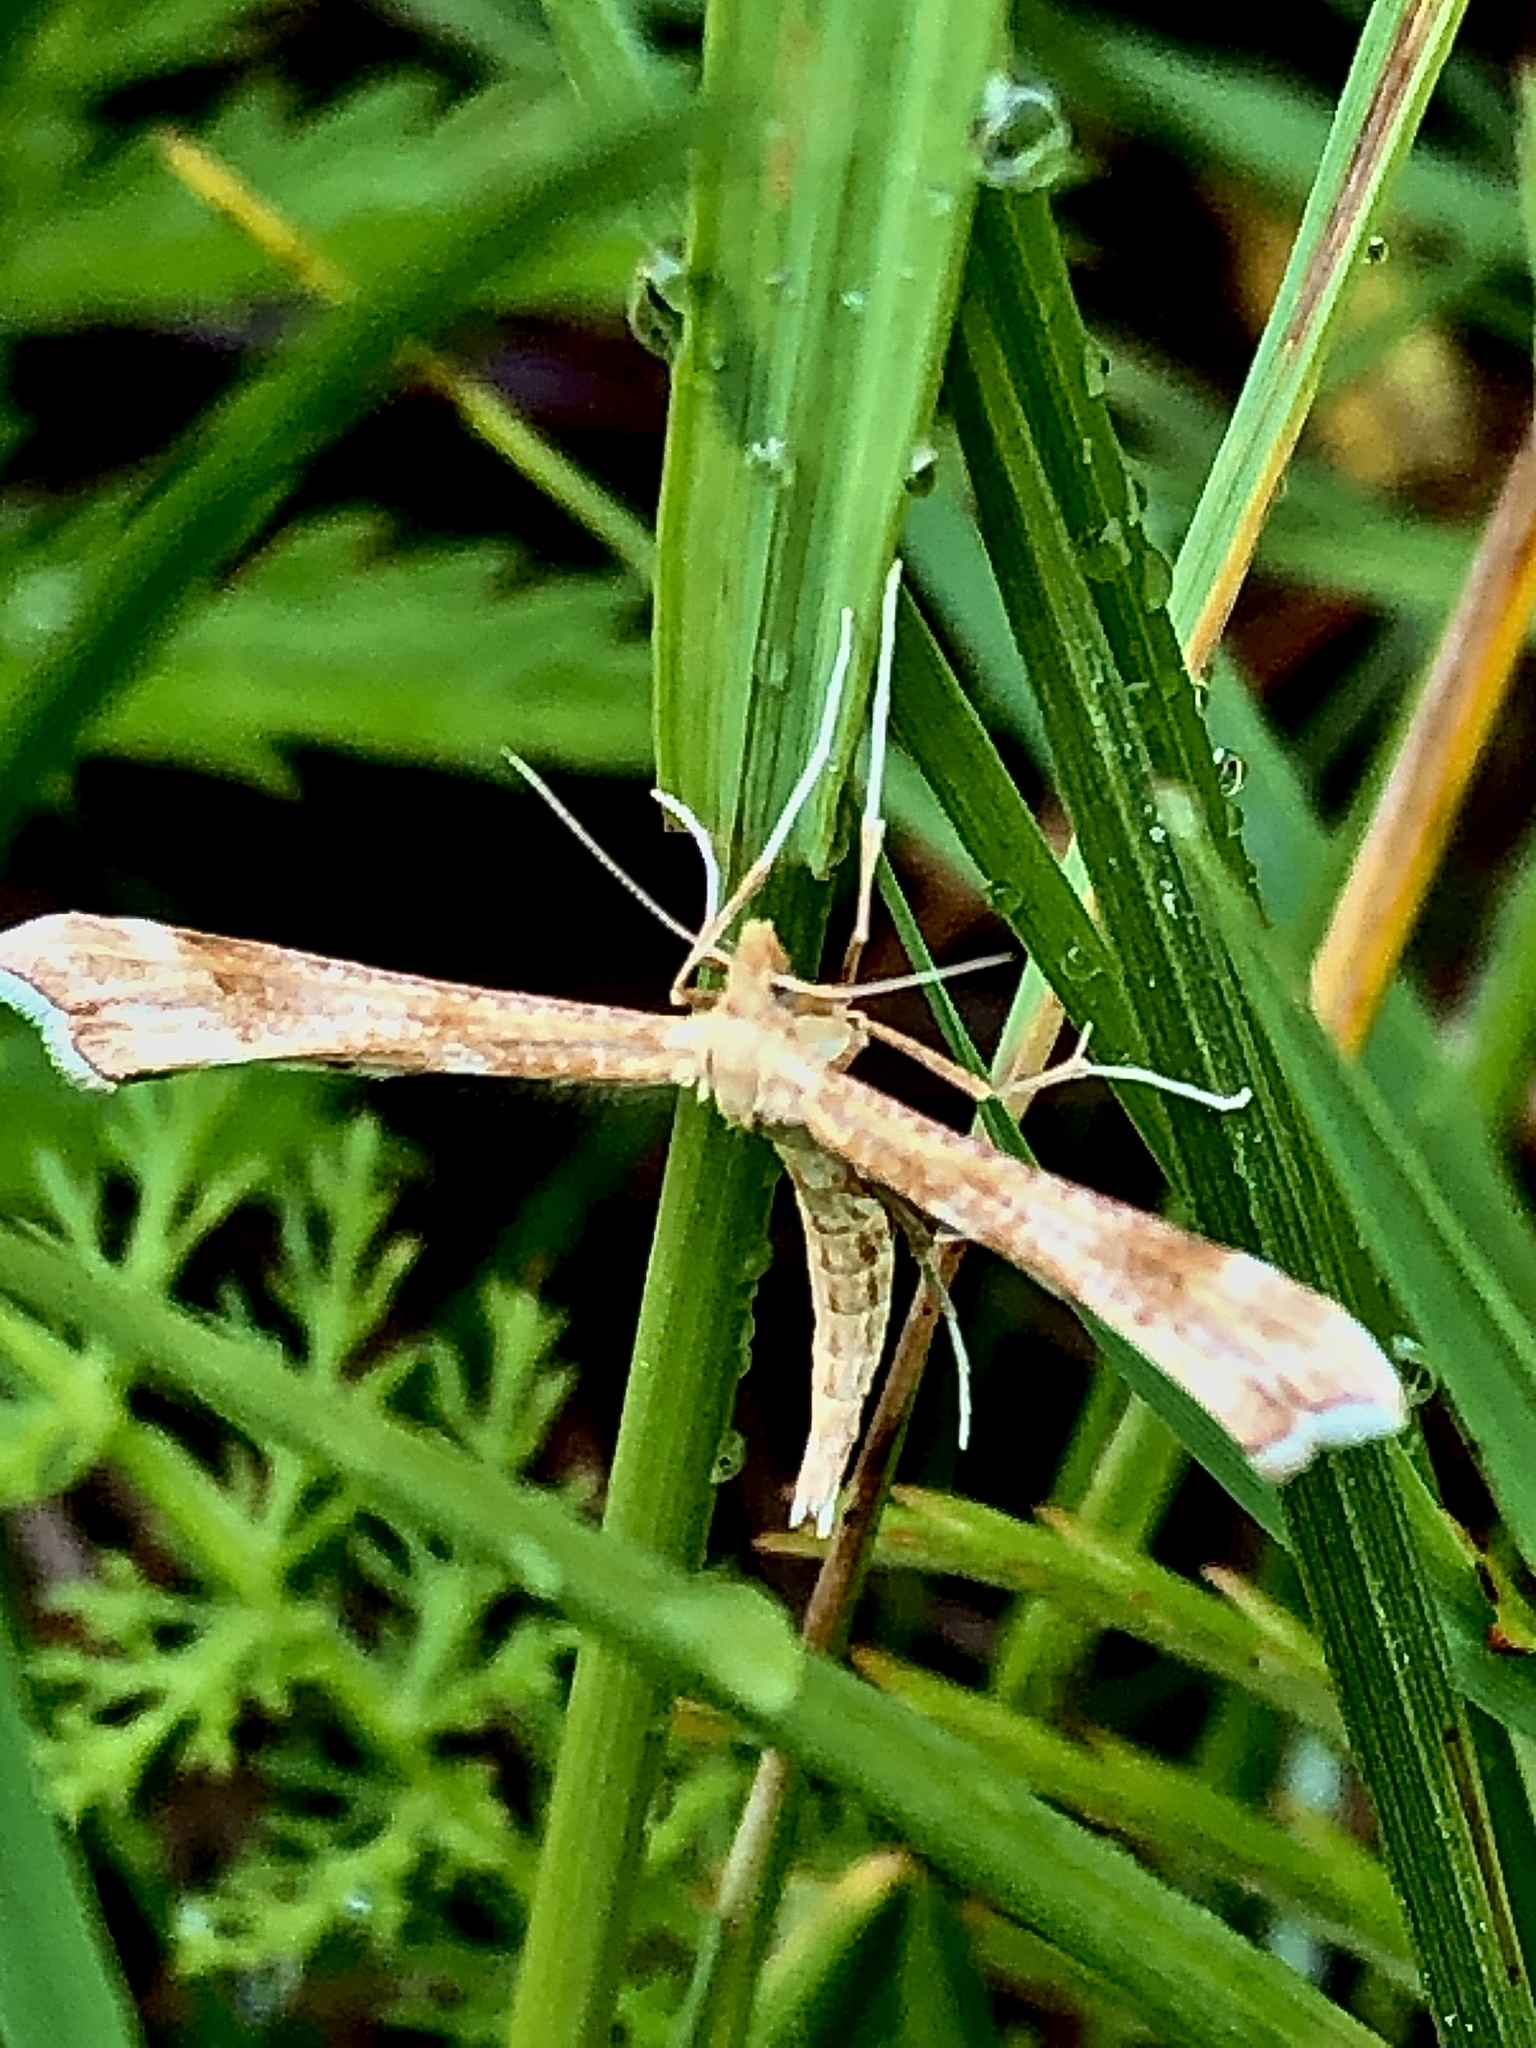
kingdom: Animalia
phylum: Arthropoda
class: Insecta
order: Lepidoptera
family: Pterophoridae
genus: Gillmeria
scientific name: Gillmeria pallidactyla
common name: Yarrow plume
